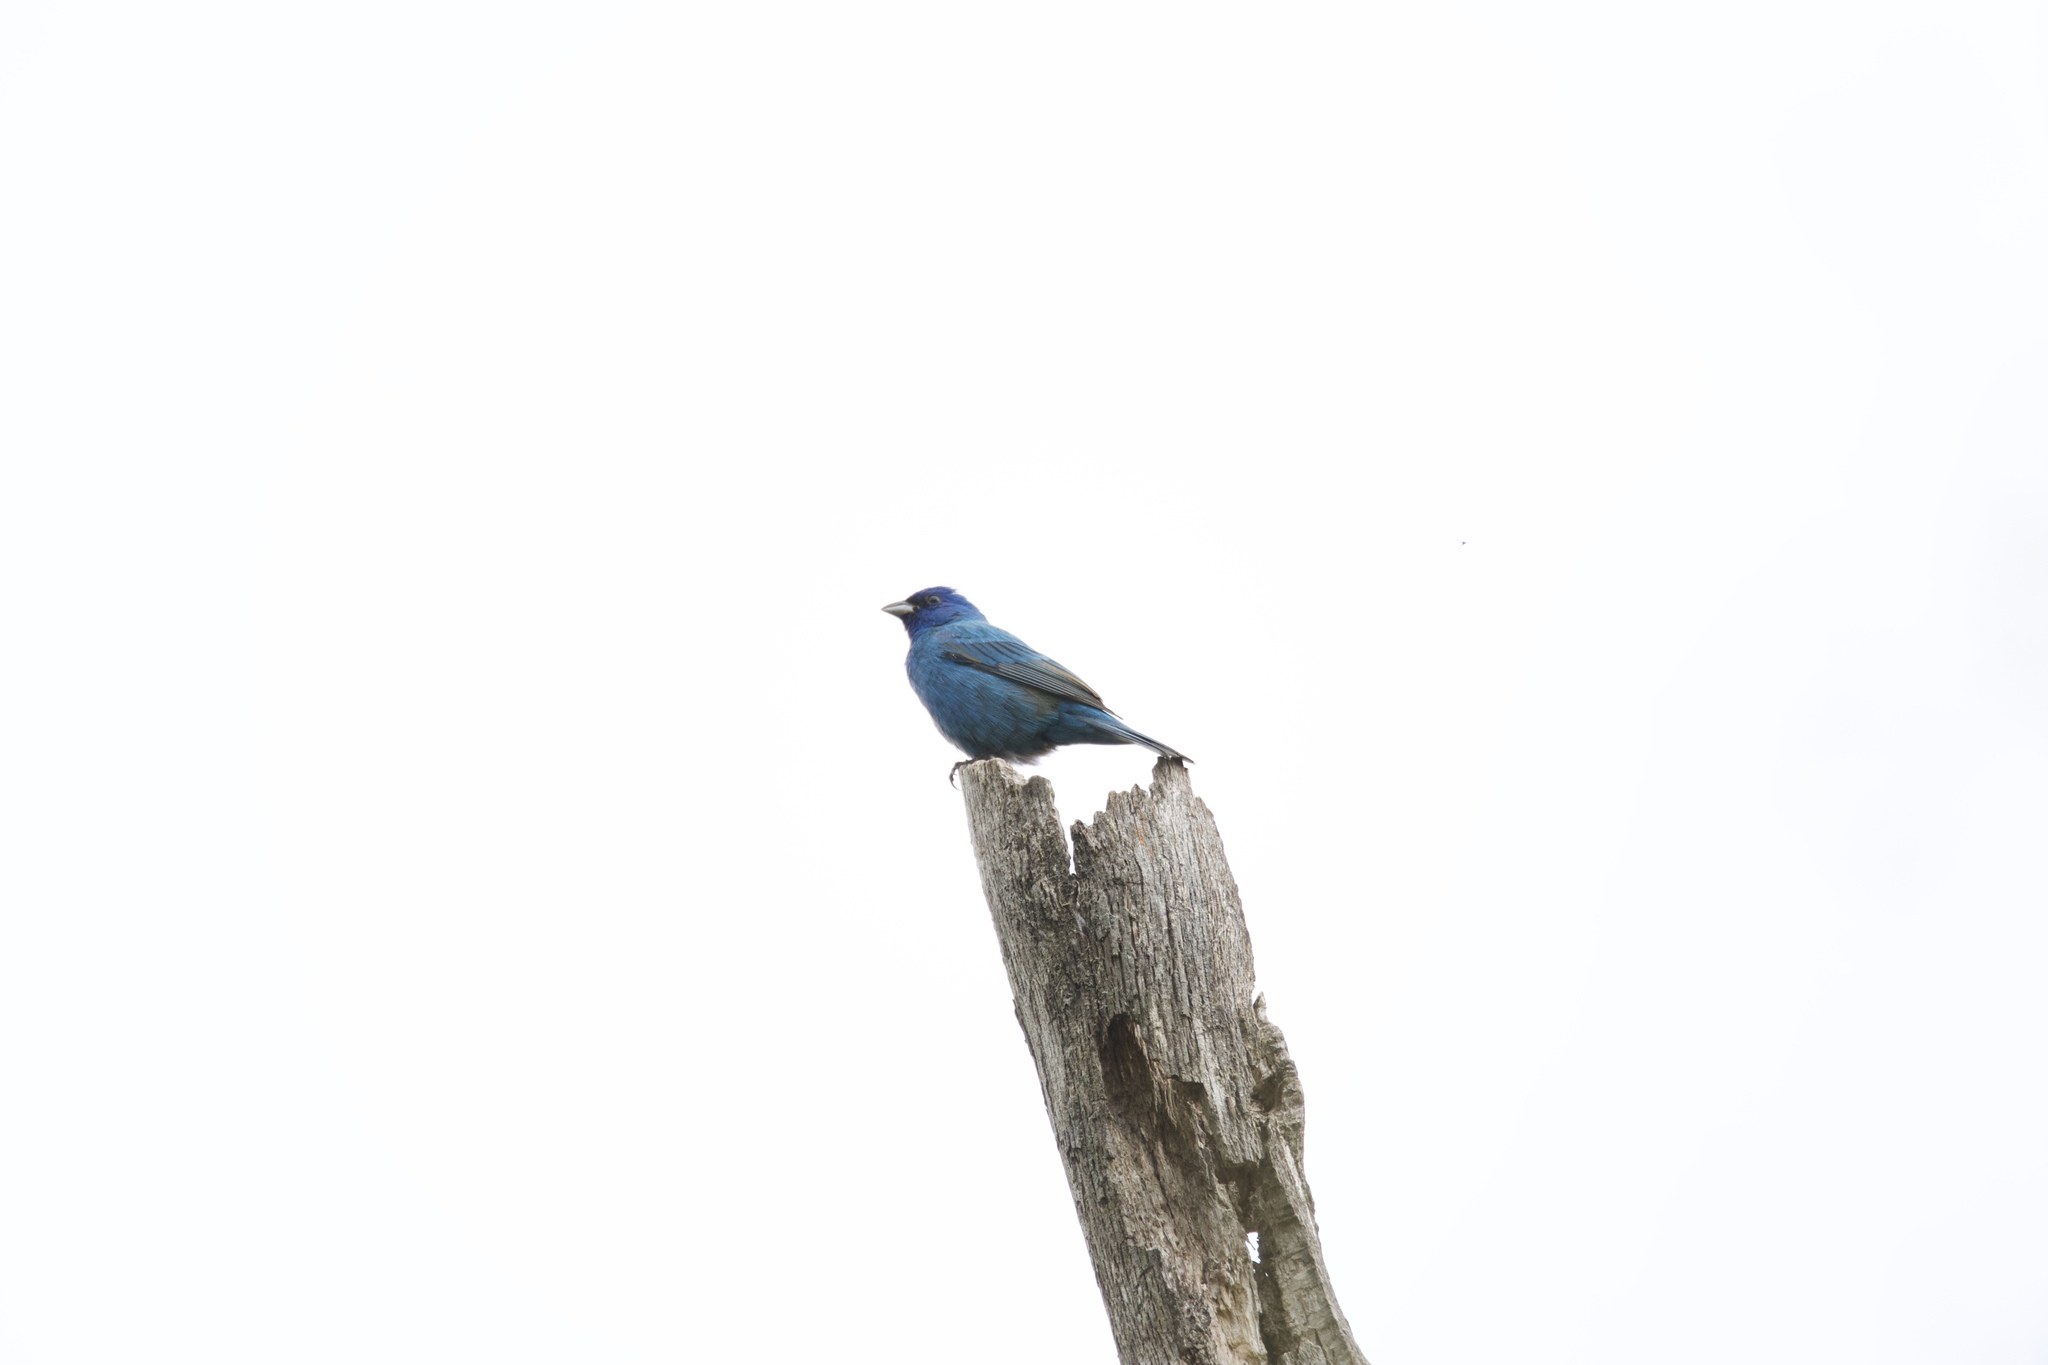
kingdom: Animalia
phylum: Chordata
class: Aves
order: Passeriformes
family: Cardinalidae
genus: Passerina
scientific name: Passerina cyanea
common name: Indigo bunting
